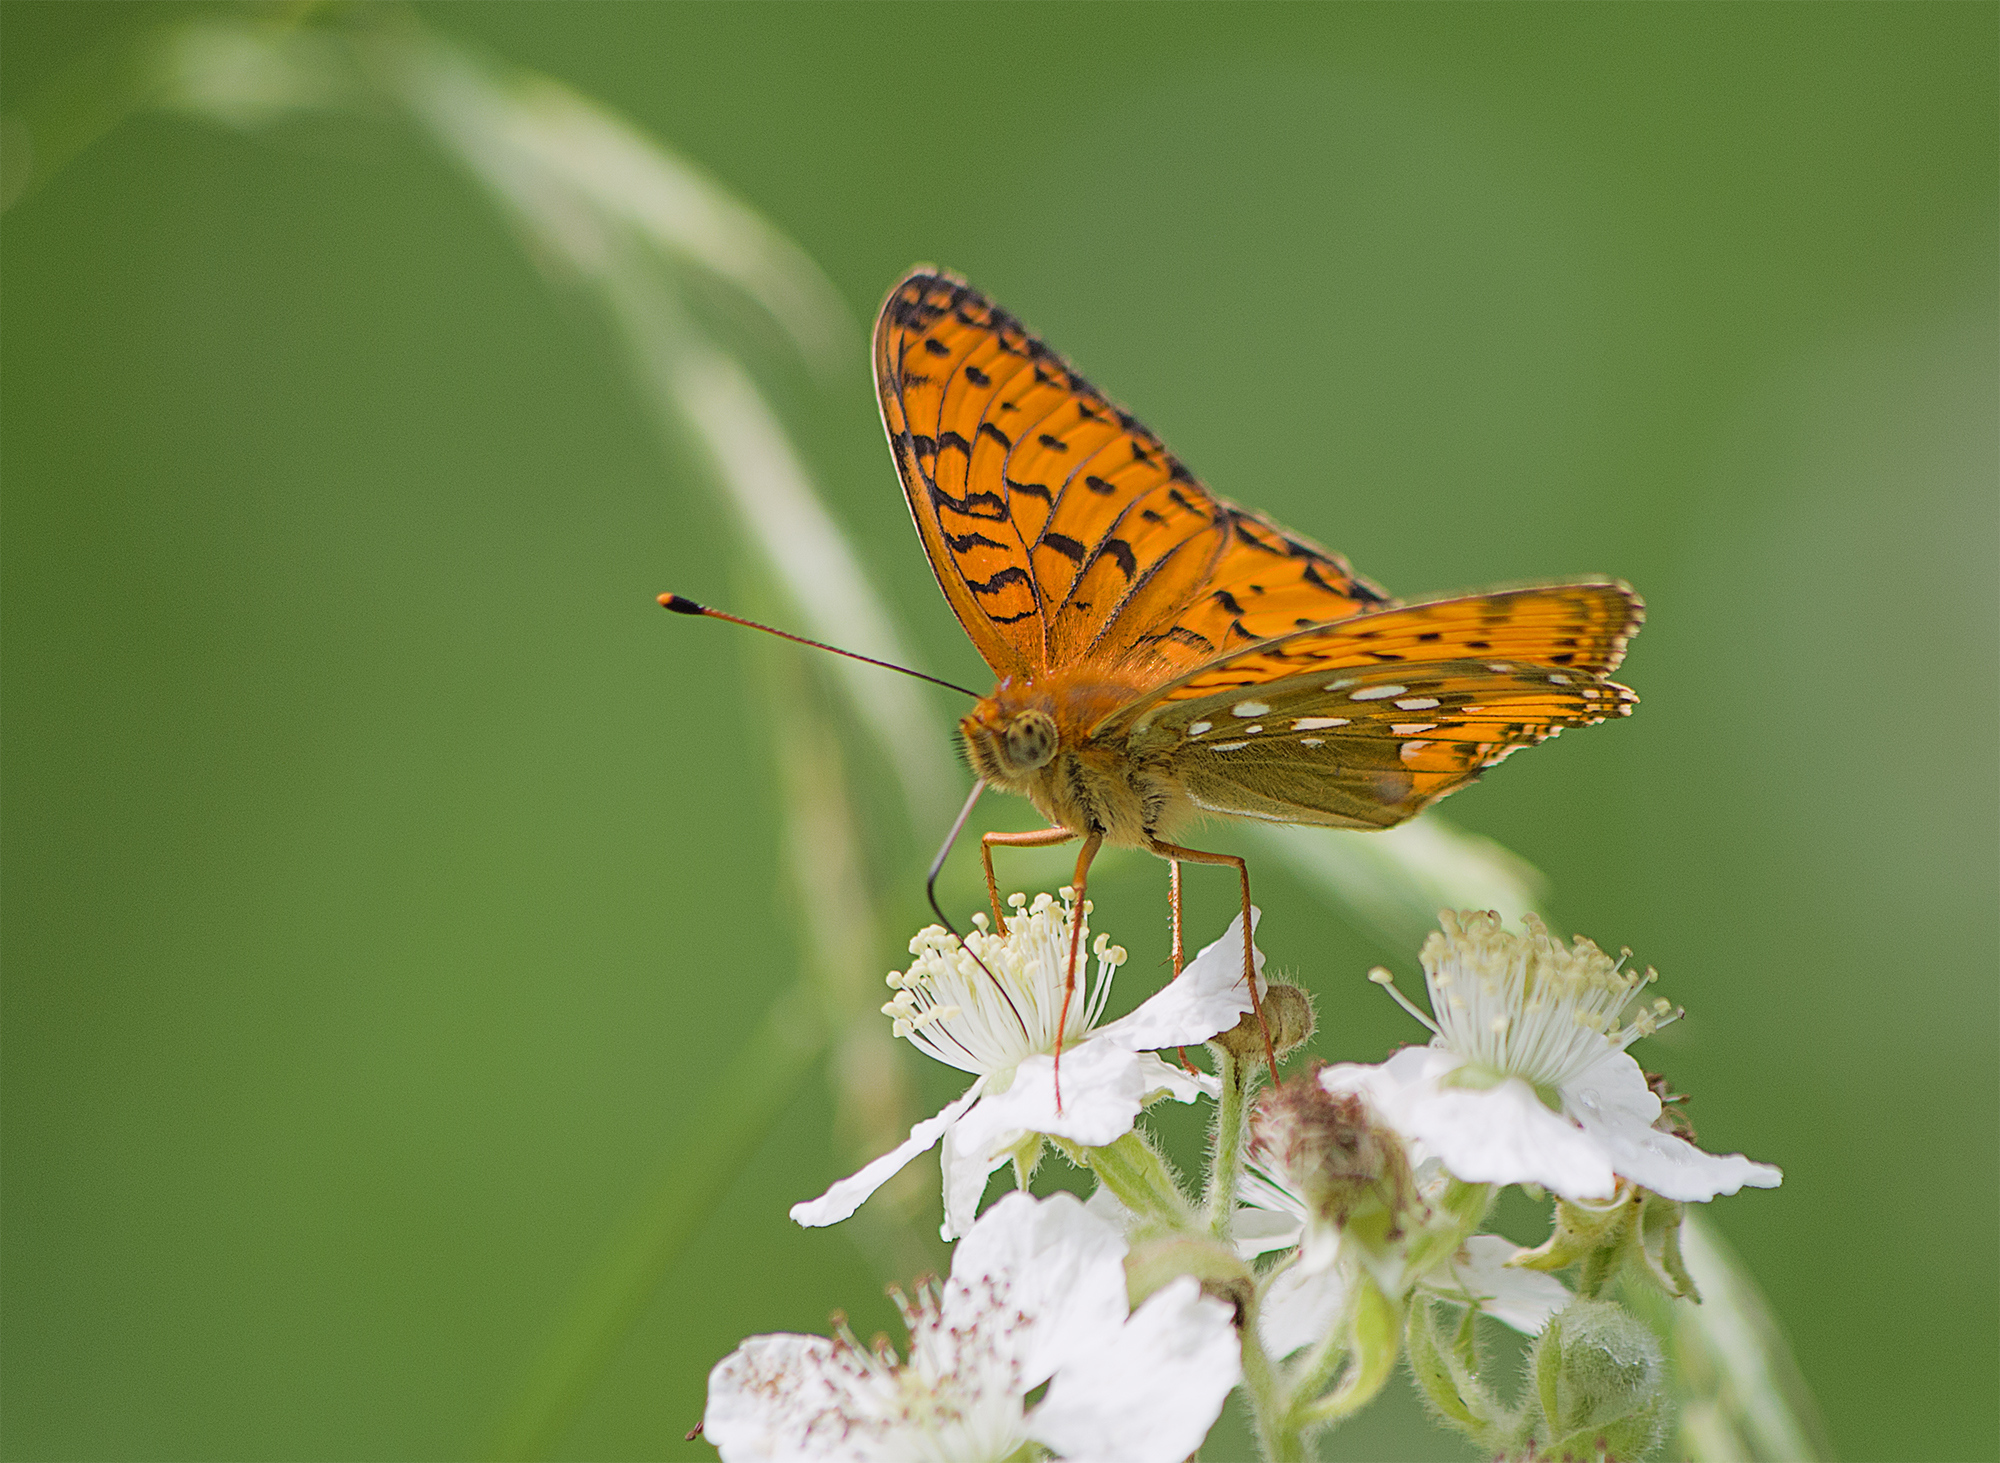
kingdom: Animalia
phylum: Arthropoda
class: Insecta
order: Lepidoptera
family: Nymphalidae
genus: Speyeria
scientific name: Speyeria aglaja
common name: Dark green fritillary
